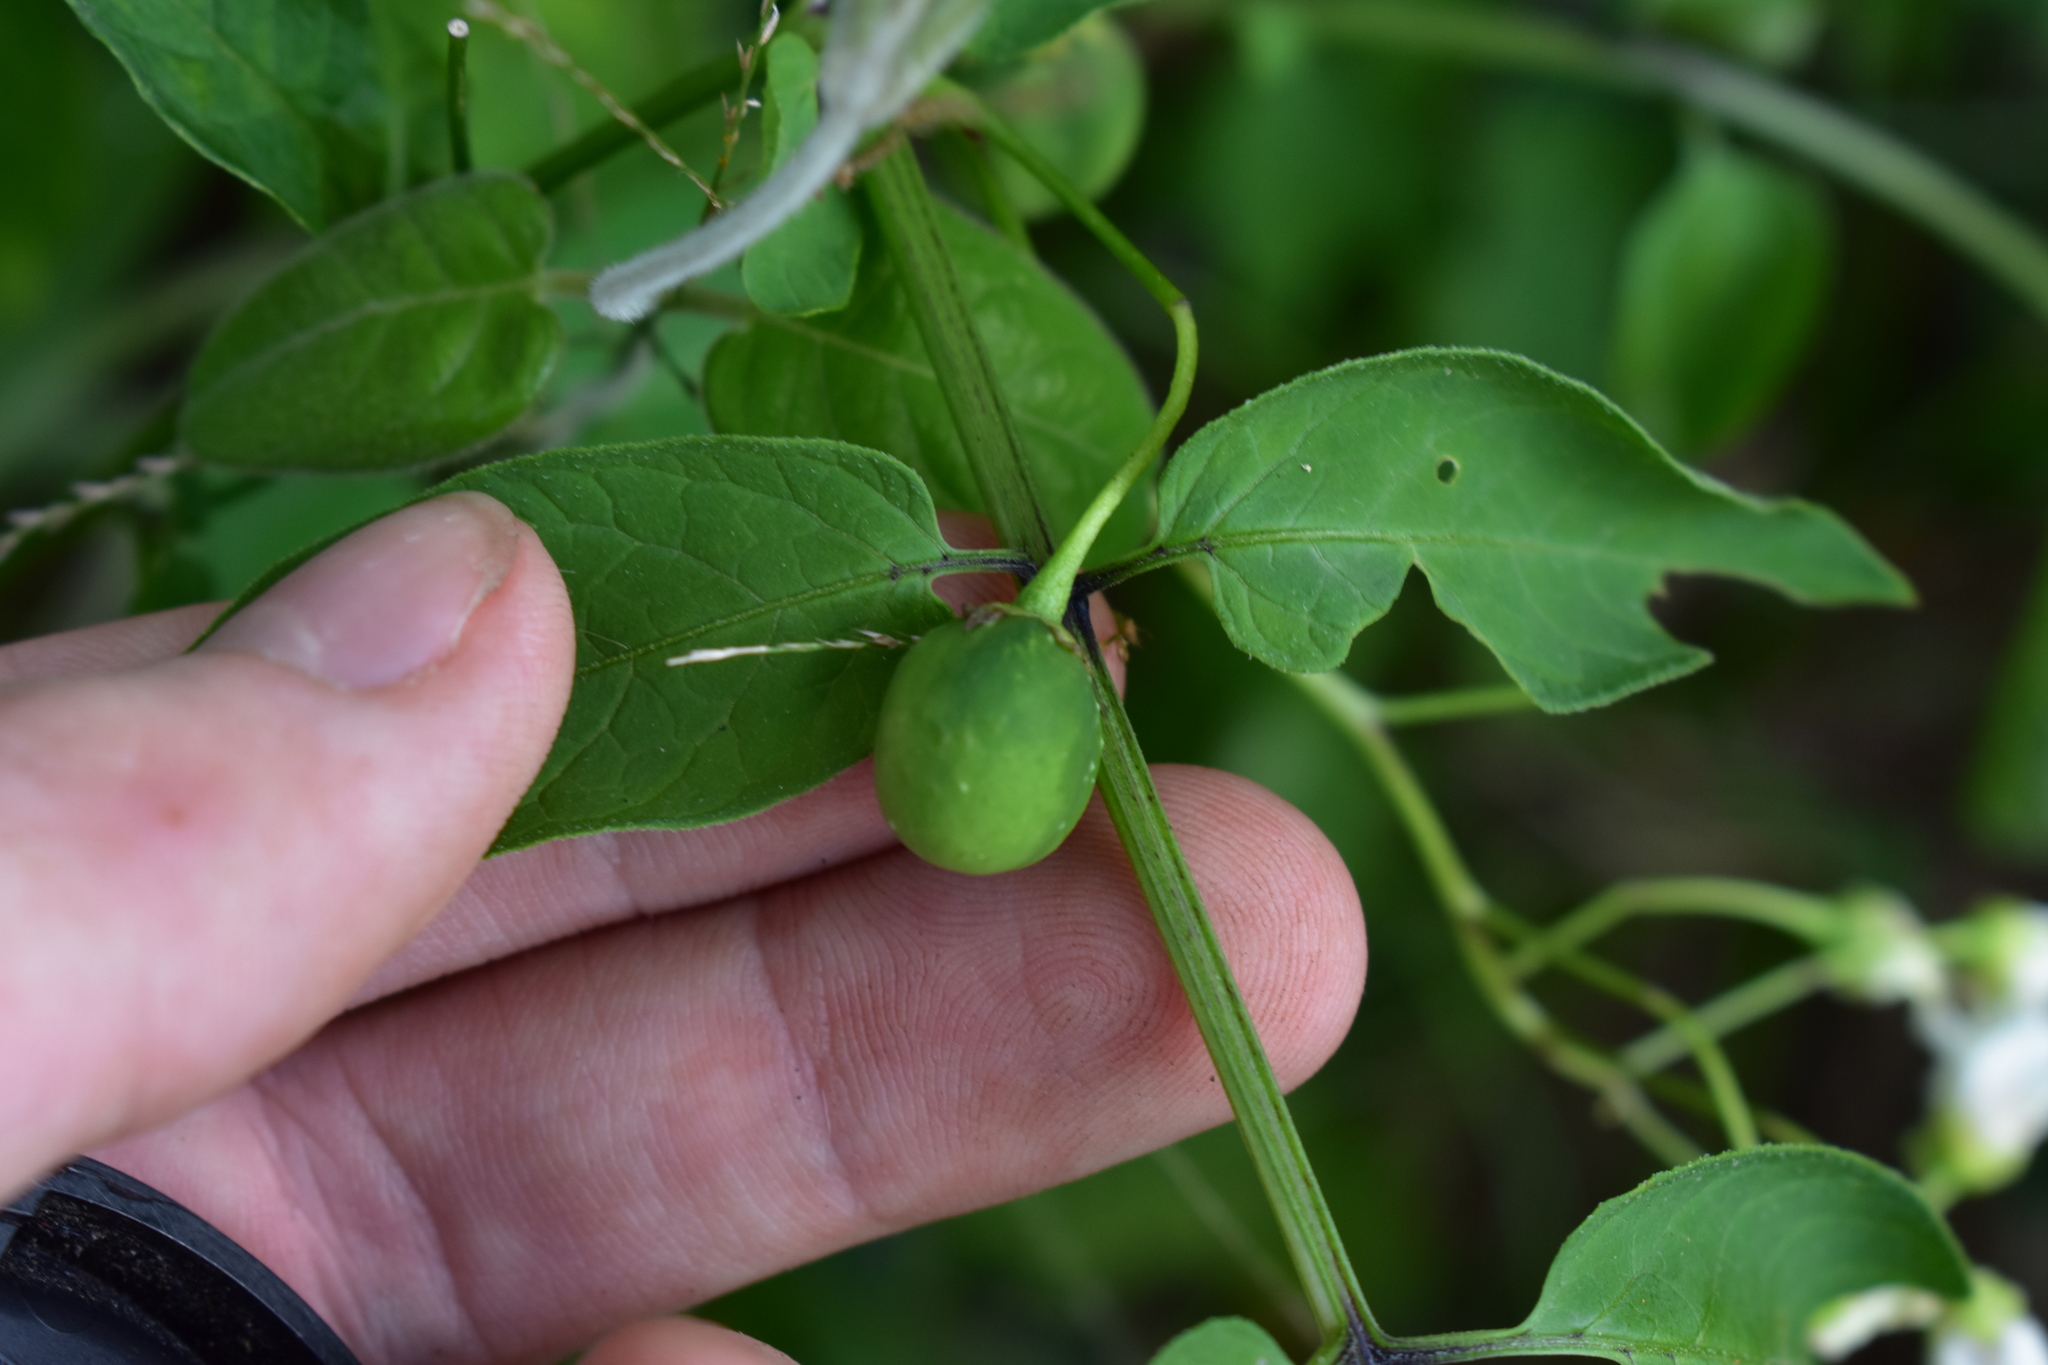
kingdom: Plantae
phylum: Tracheophyta
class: Magnoliopsida
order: Solanales
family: Solanaceae
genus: Solanum
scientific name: Solanum chacoense
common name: Chaco potato
